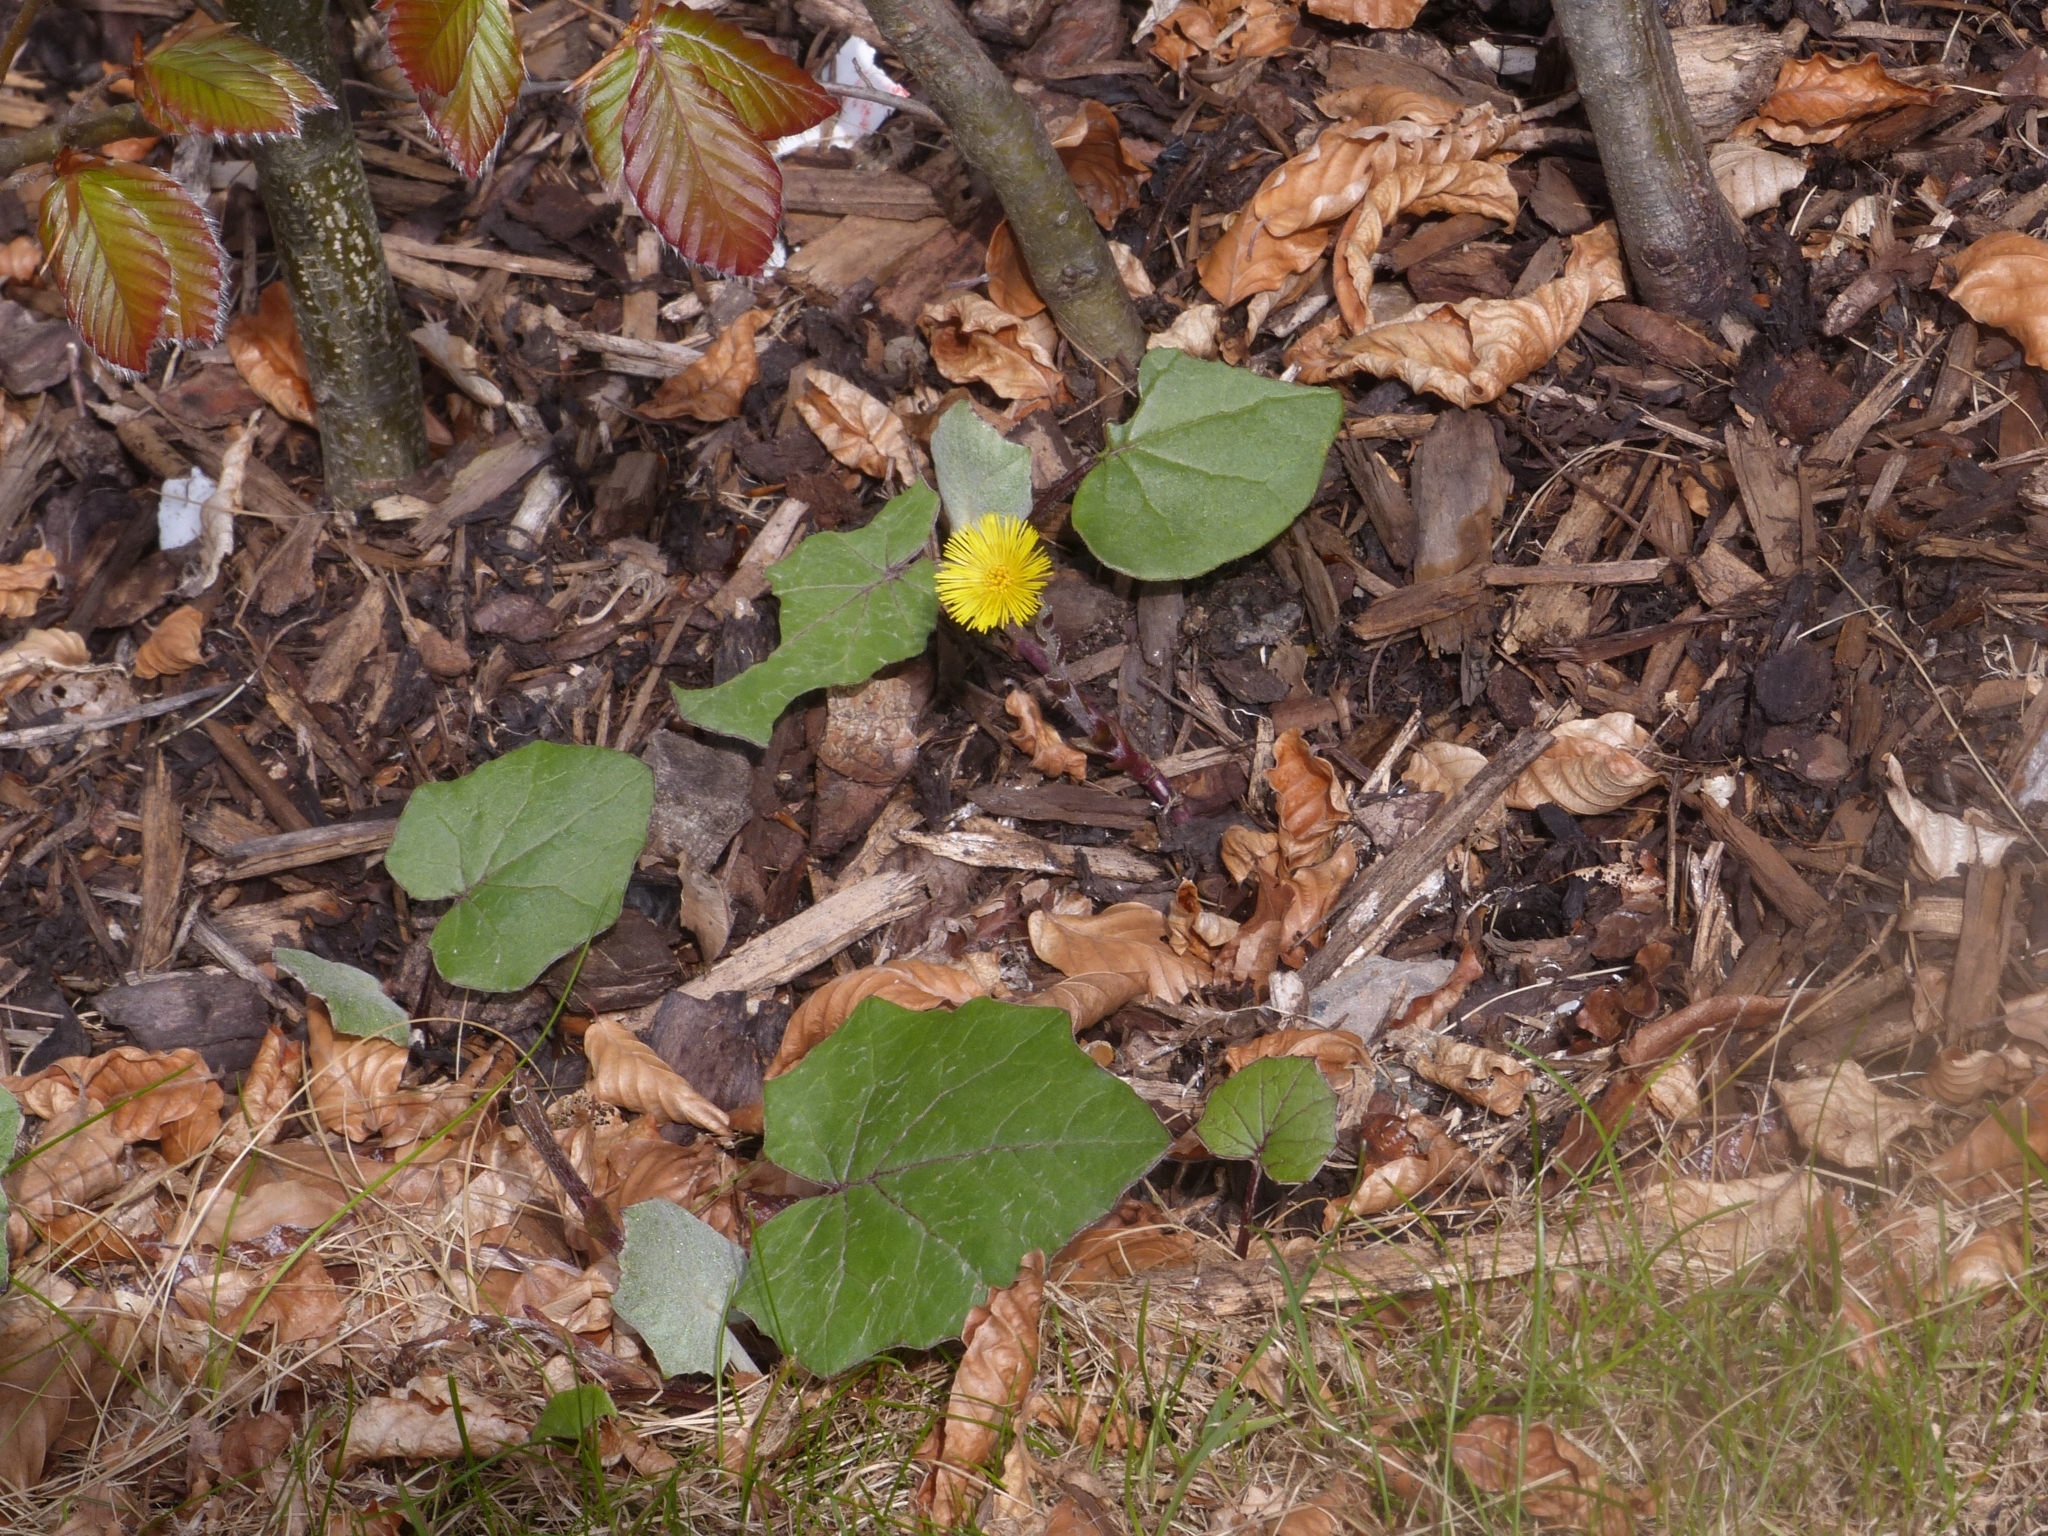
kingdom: Plantae
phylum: Tracheophyta
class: Magnoliopsida
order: Asterales
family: Asteraceae
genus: Tussilago
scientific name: Tussilago farfara
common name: Coltsfoot
